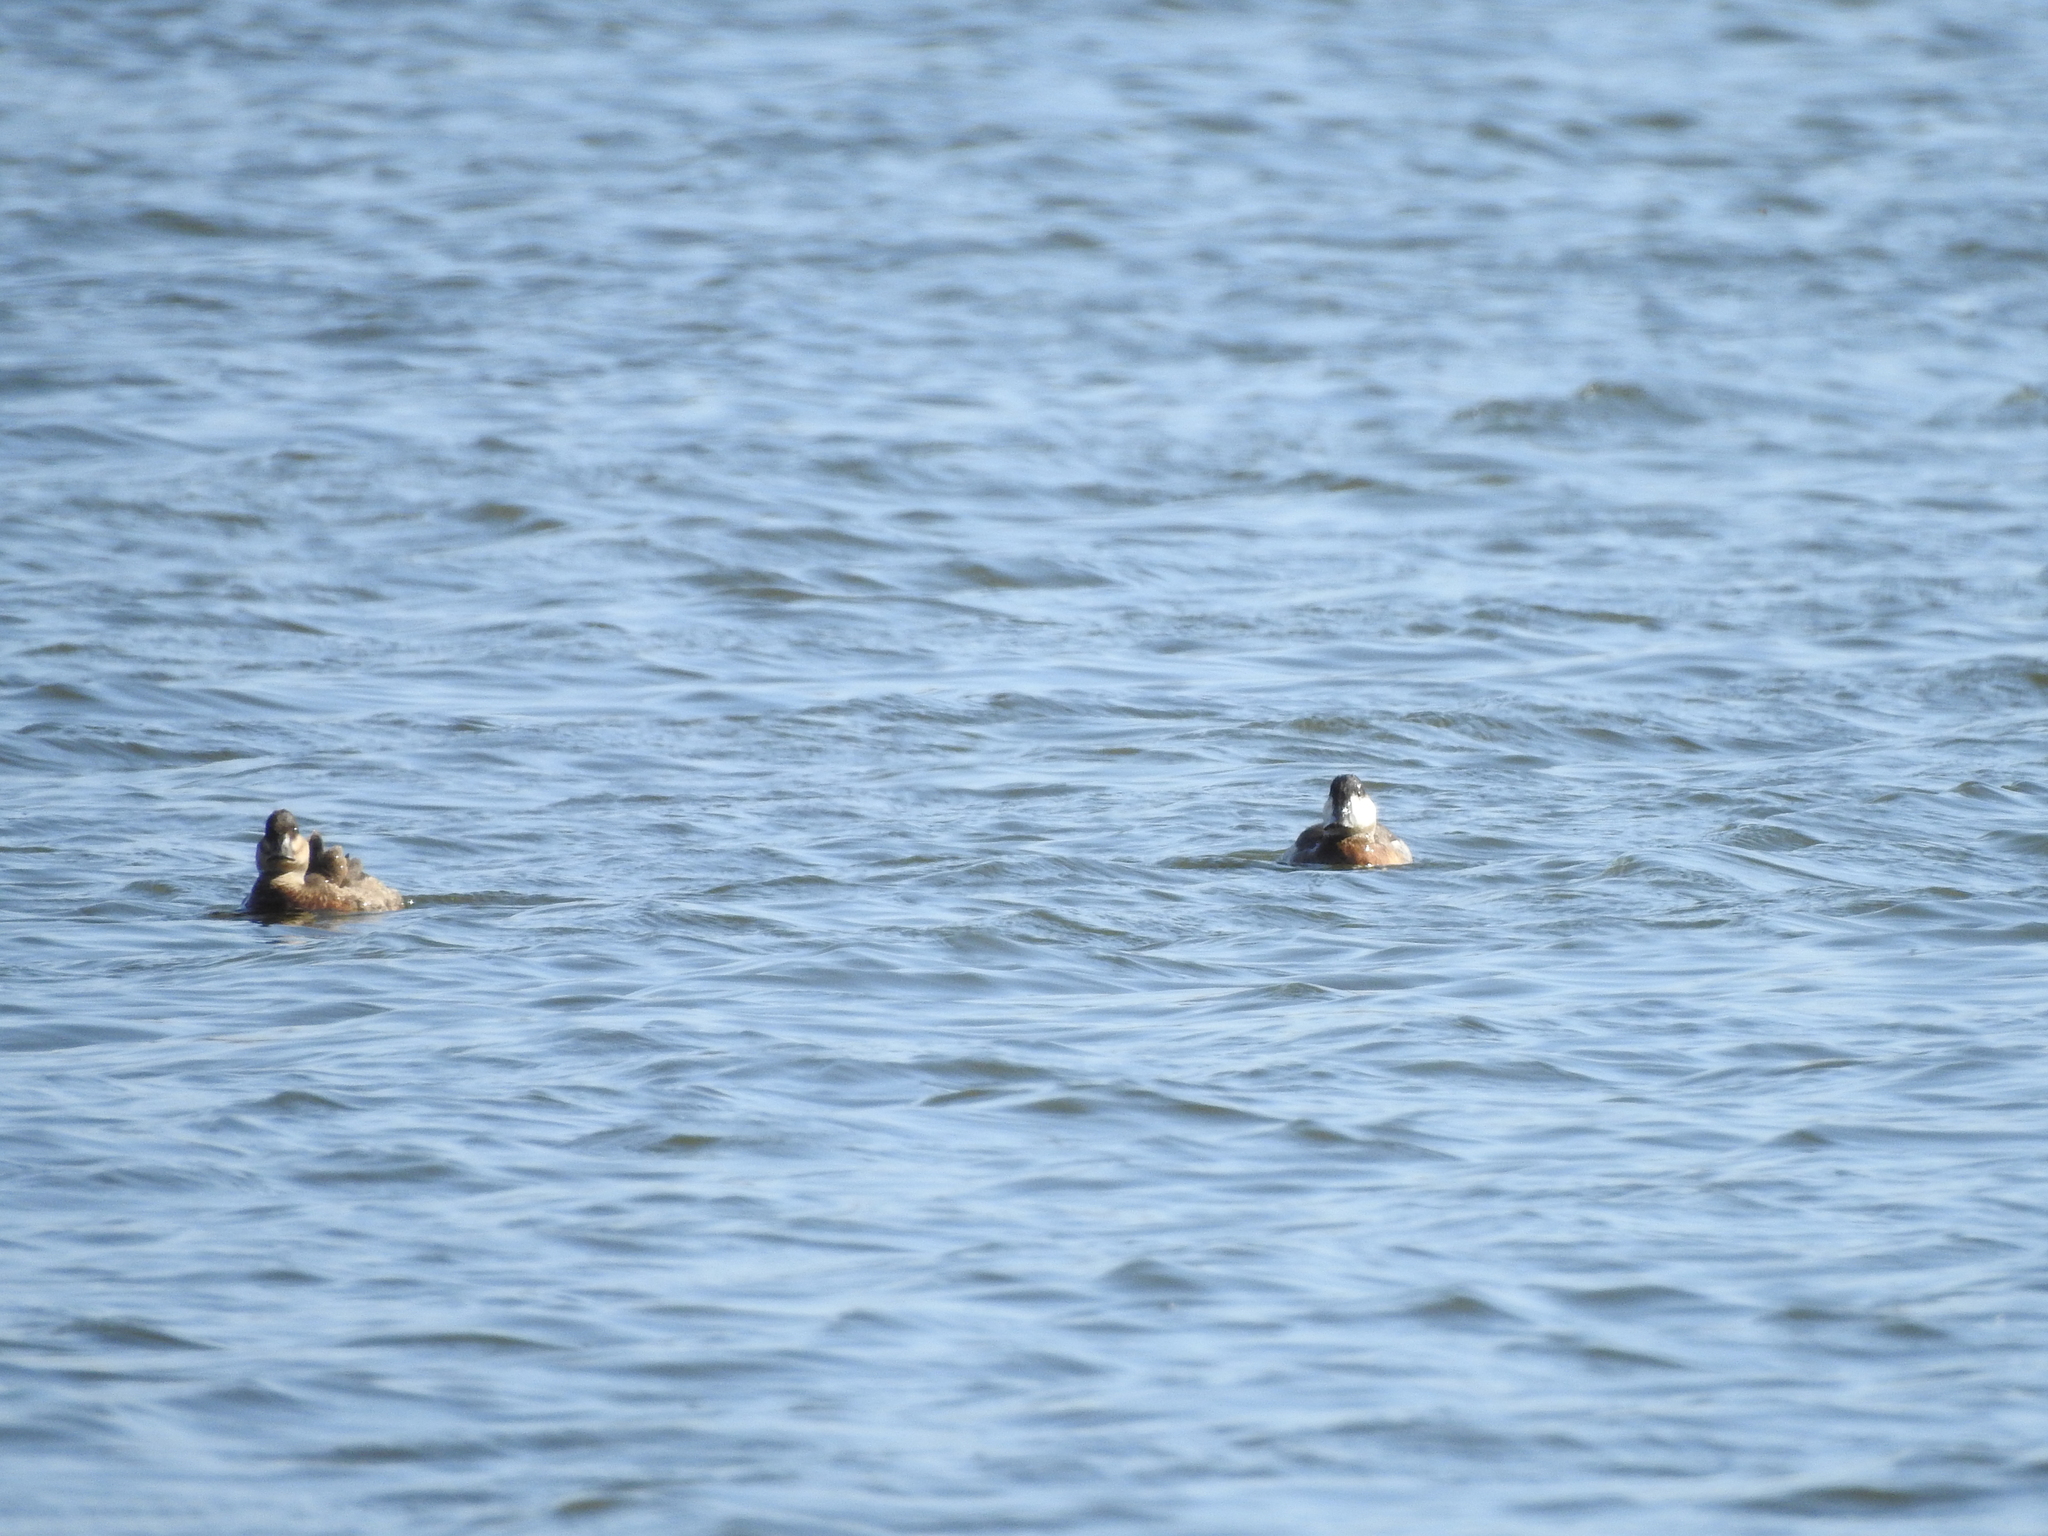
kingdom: Animalia
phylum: Chordata
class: Aves
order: Anseriformes
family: Anatidae
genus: Oxyura
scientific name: Oxyura jamaicensis
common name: Ruddy duck
